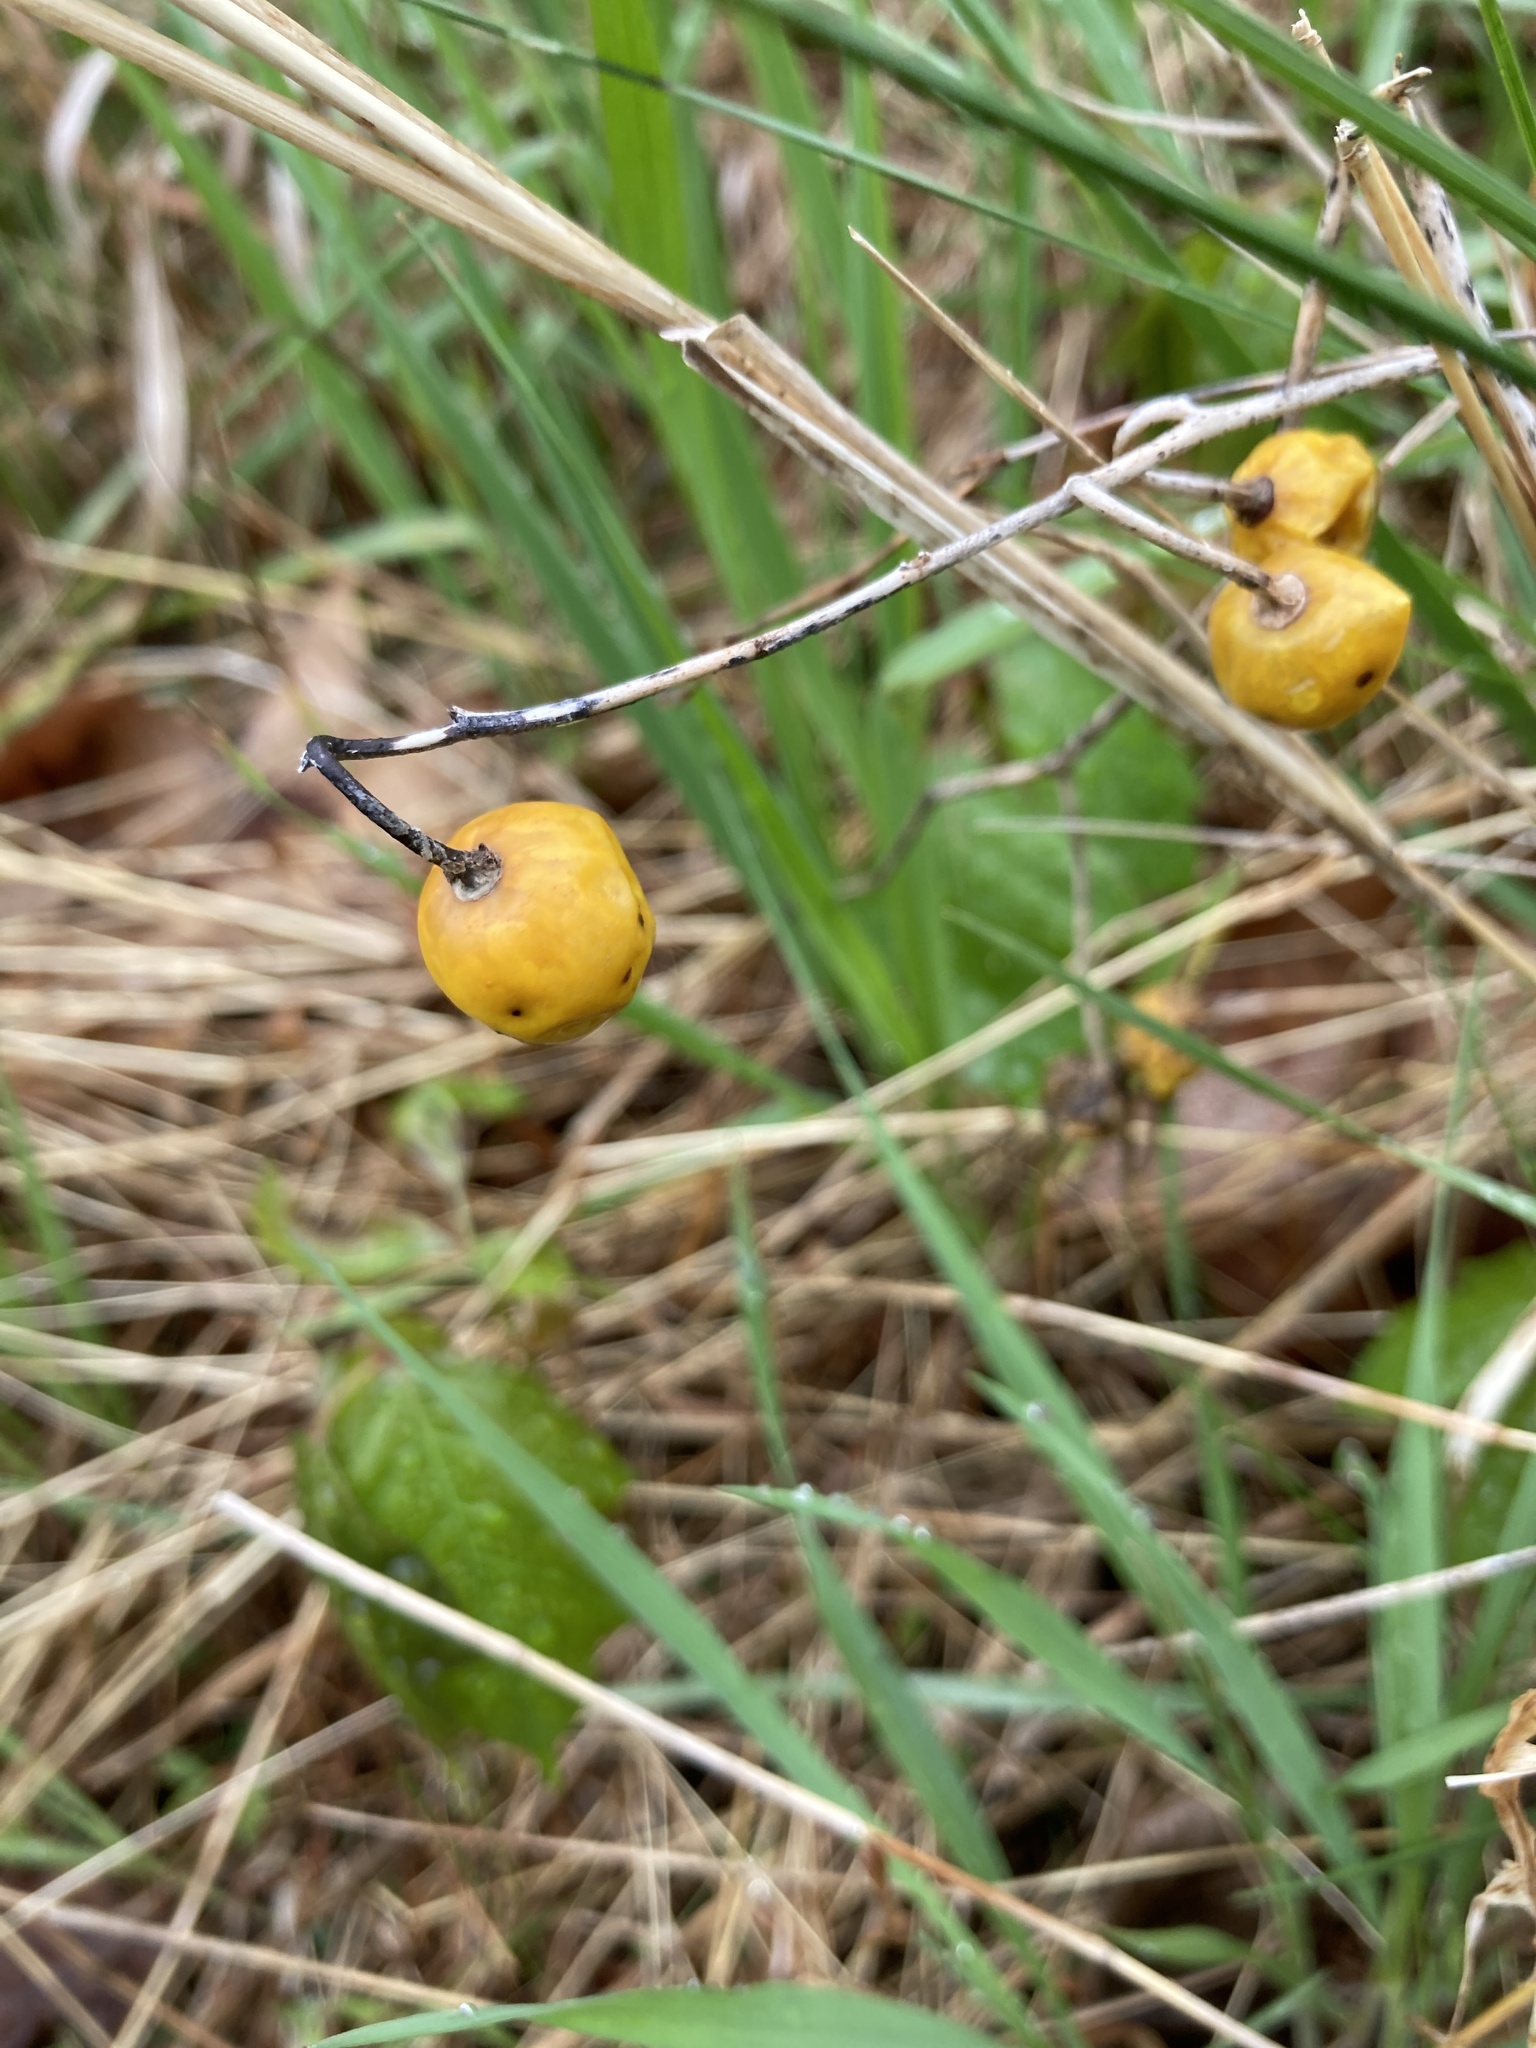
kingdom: Plantae
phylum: Tracheophyta
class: Magnoliopsida
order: Solanales
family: Solanaceae
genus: Solanum
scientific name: Solanum carolinense
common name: Horse-nettle
